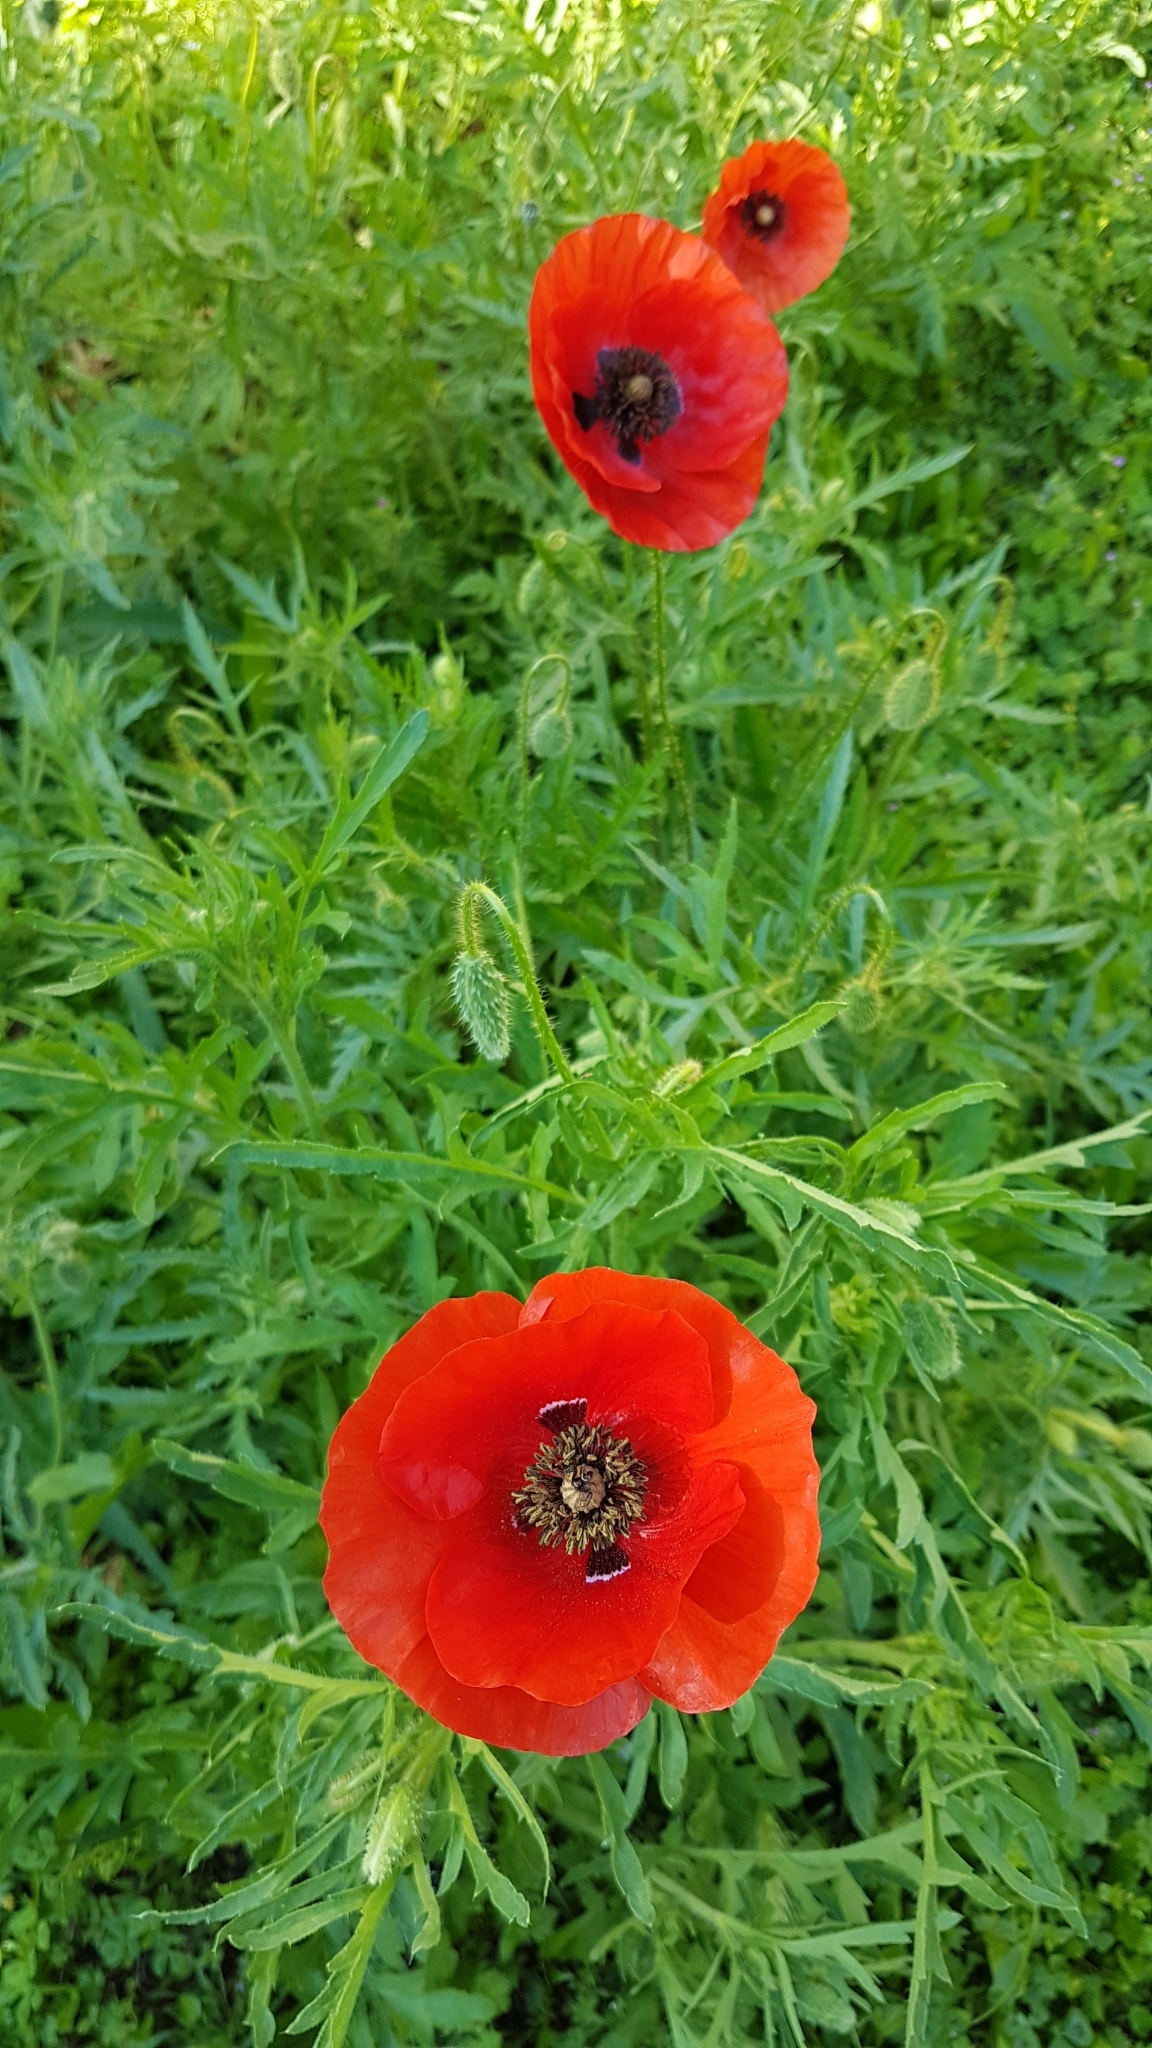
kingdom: Plantae
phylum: Tracheophyta
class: Magnoliopsida
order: Ranunculales
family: Papaveraceae
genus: Papaver
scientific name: Papaver rhoeas
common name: Corn poppy
